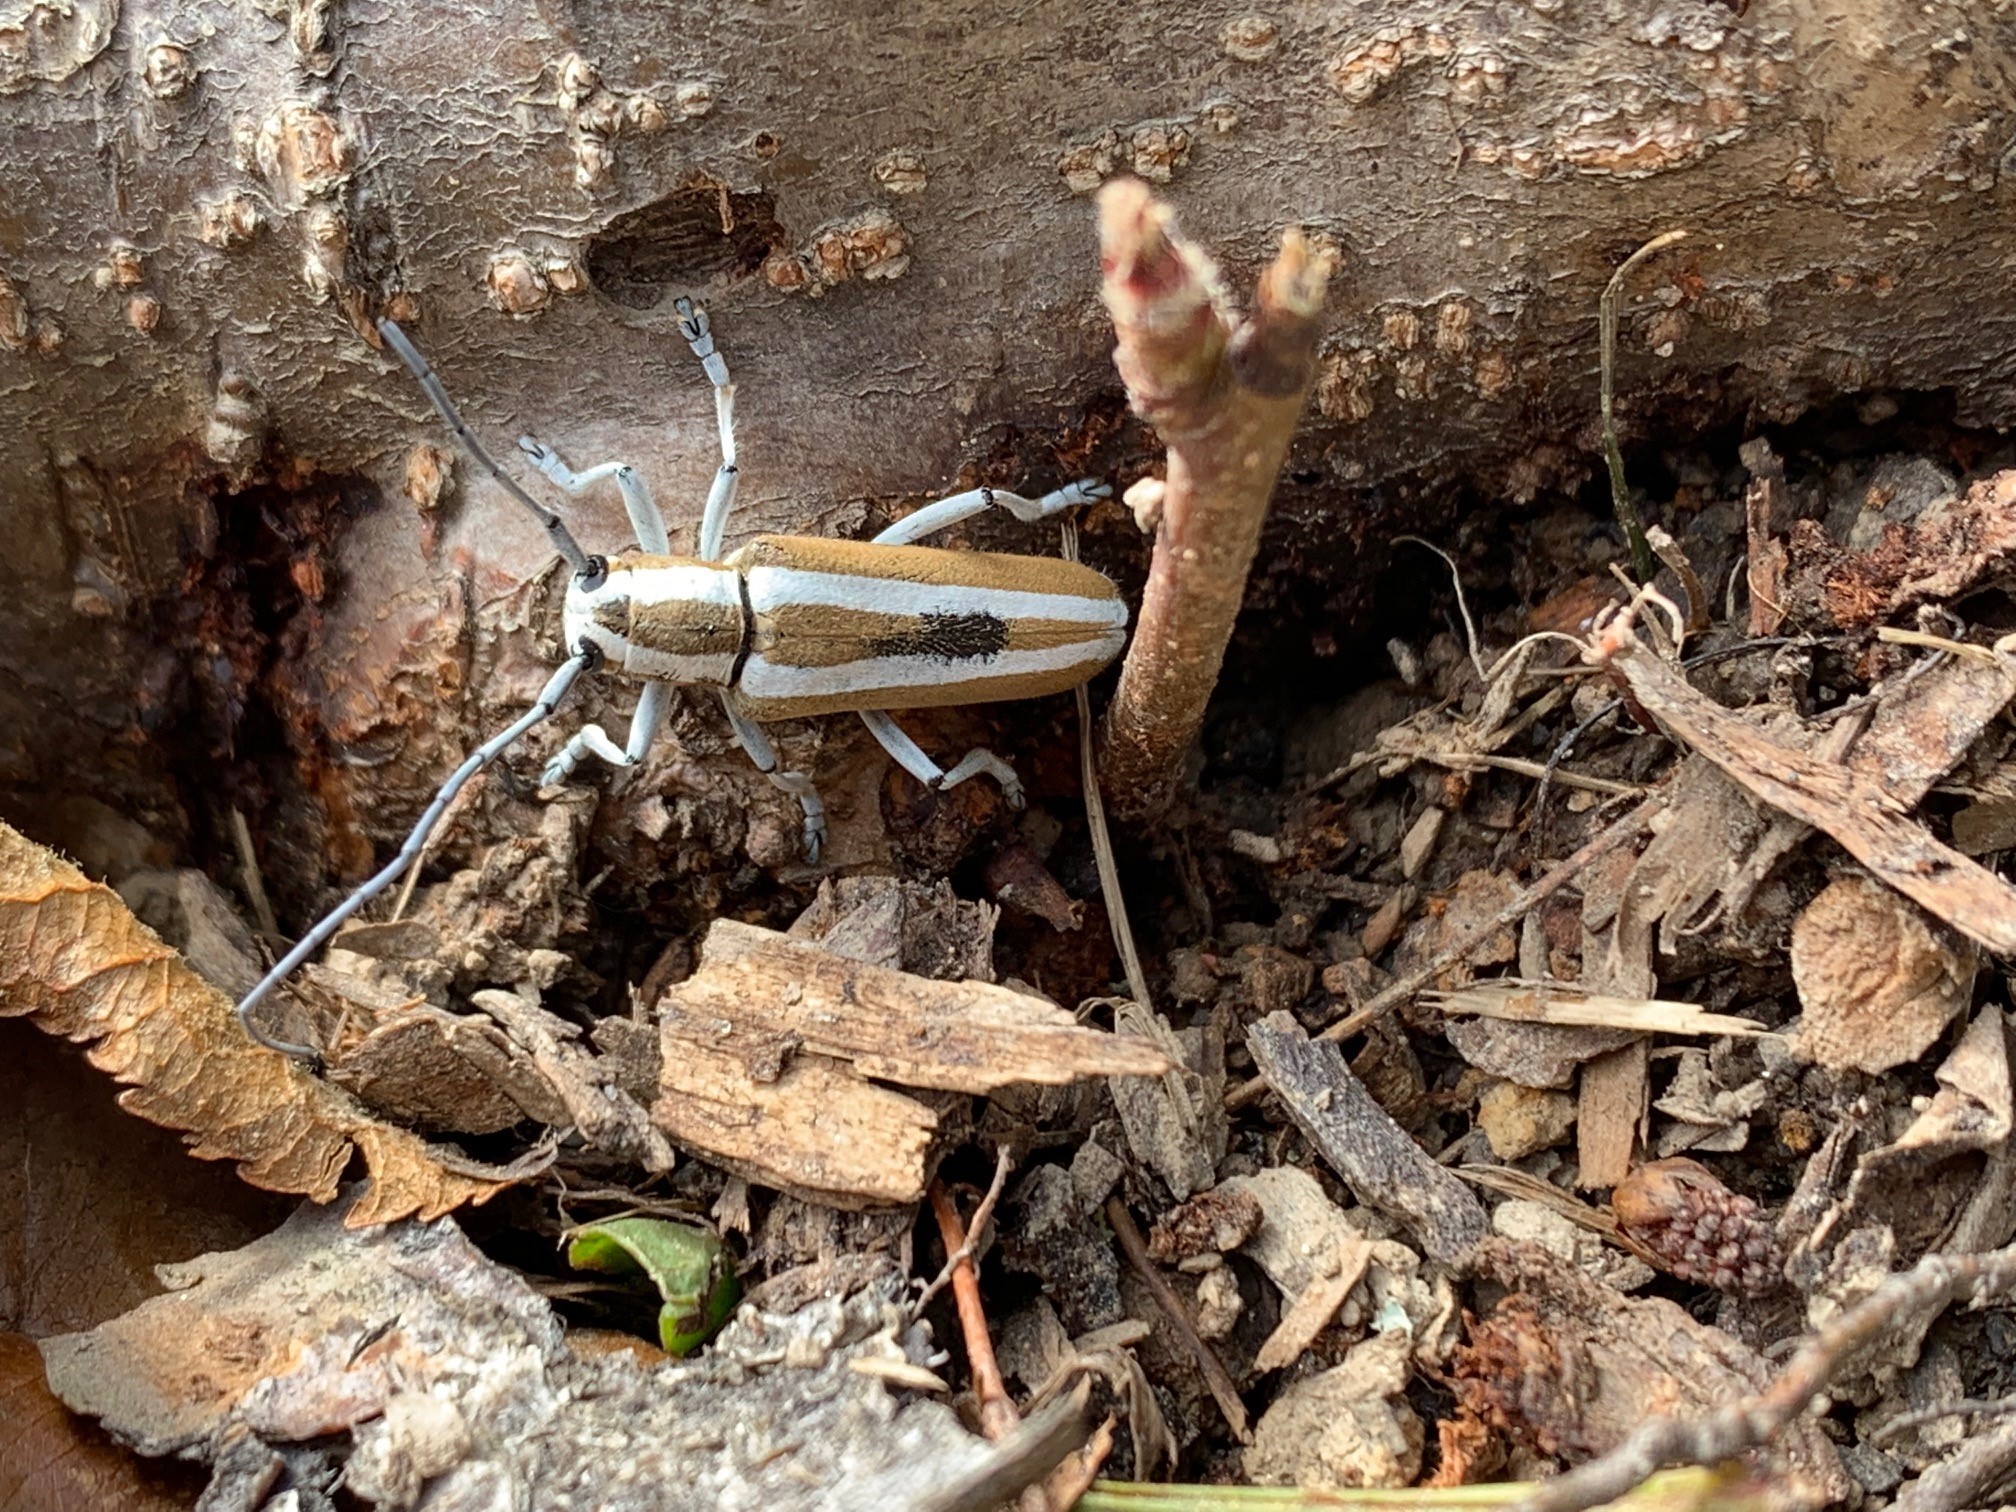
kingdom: Animalia
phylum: Arthropoda
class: Insecta
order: Coleoptera
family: Cerambycidae
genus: Saperda
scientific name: Saperda candida
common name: Round-headed borer
